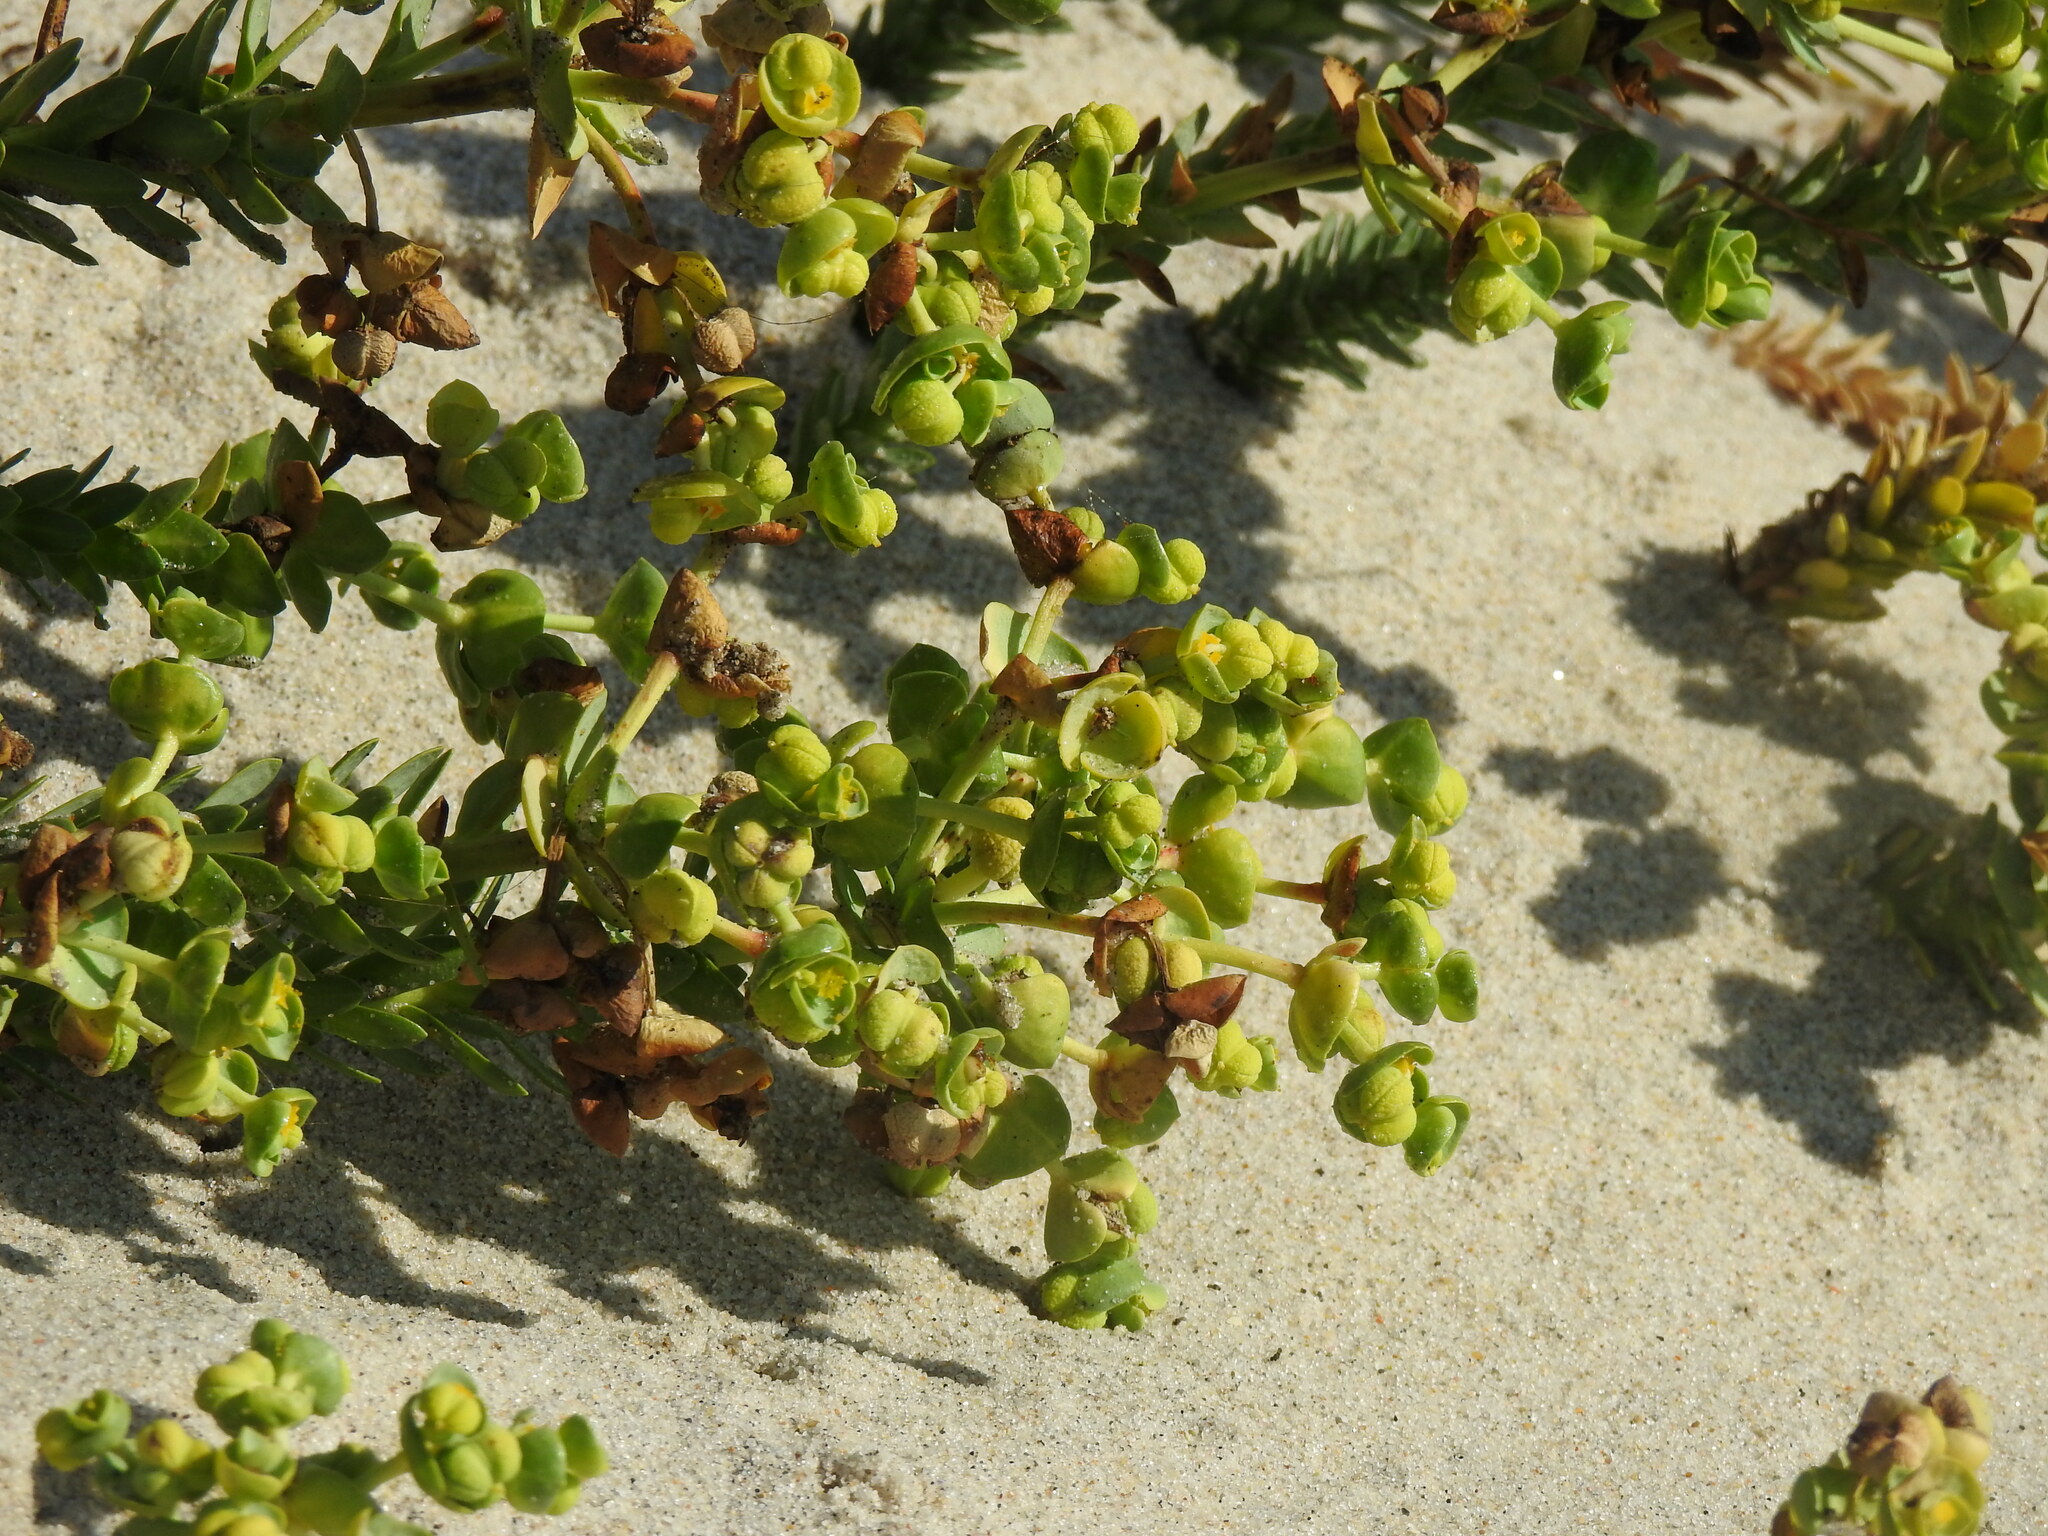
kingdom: Plantae
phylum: Tracheophyta
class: Magnoliopsida
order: Malpighiales
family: Euphorbiaceae
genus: Euphorbia
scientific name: Euphorbia paralias
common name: Sea spurge
